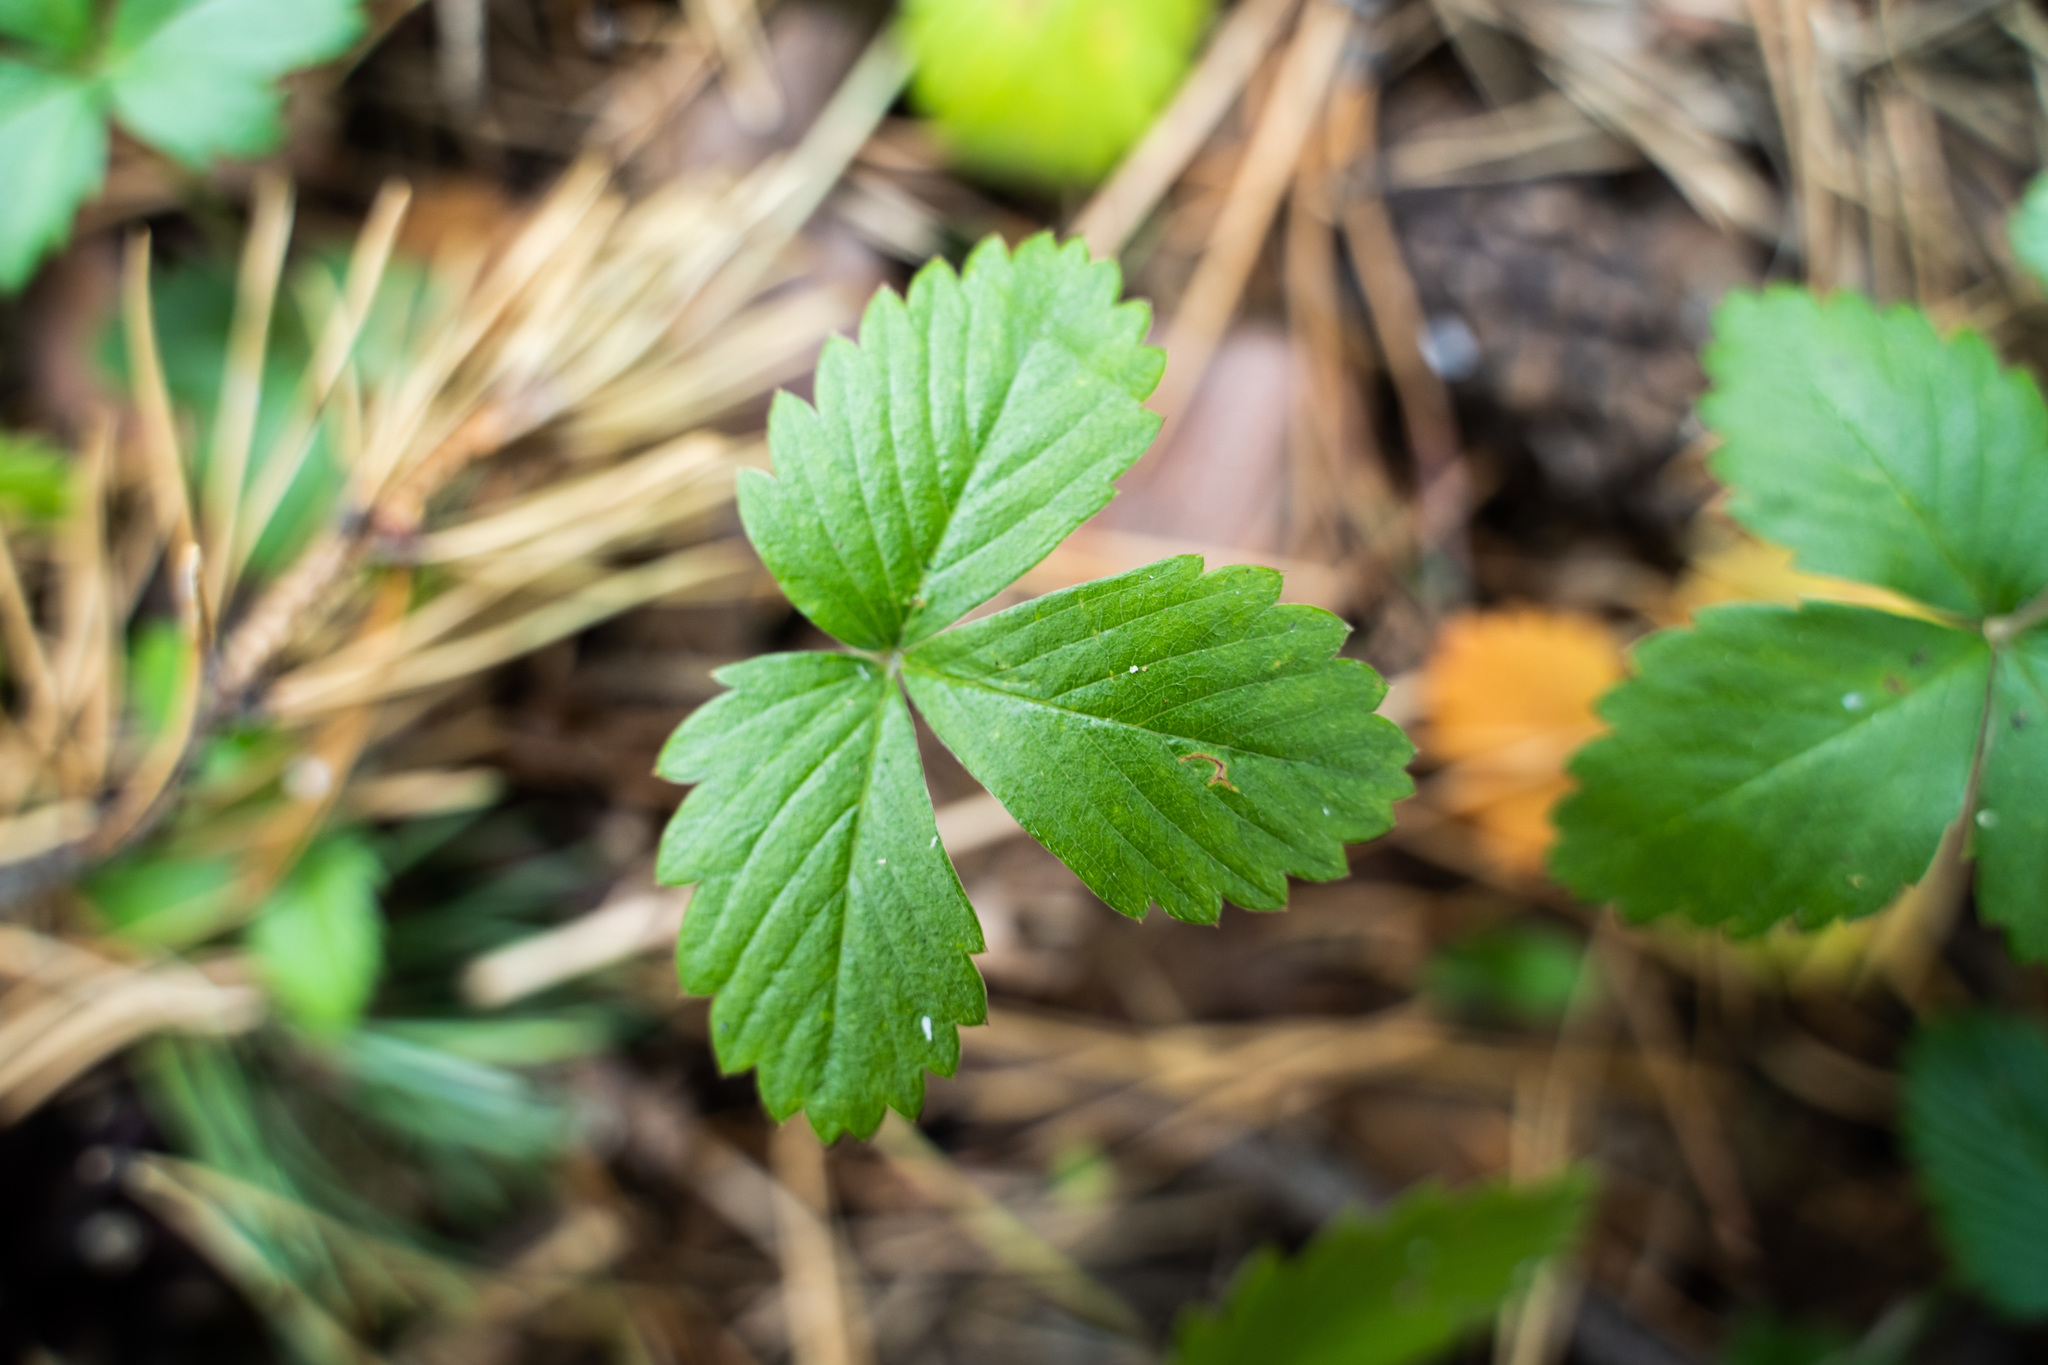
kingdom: Plantae
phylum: Tracheophyta
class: Magnoliopsida
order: Rosales
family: Rosaceae
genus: Fragaria
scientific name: Fragaria vesca
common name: Wild strawberry
